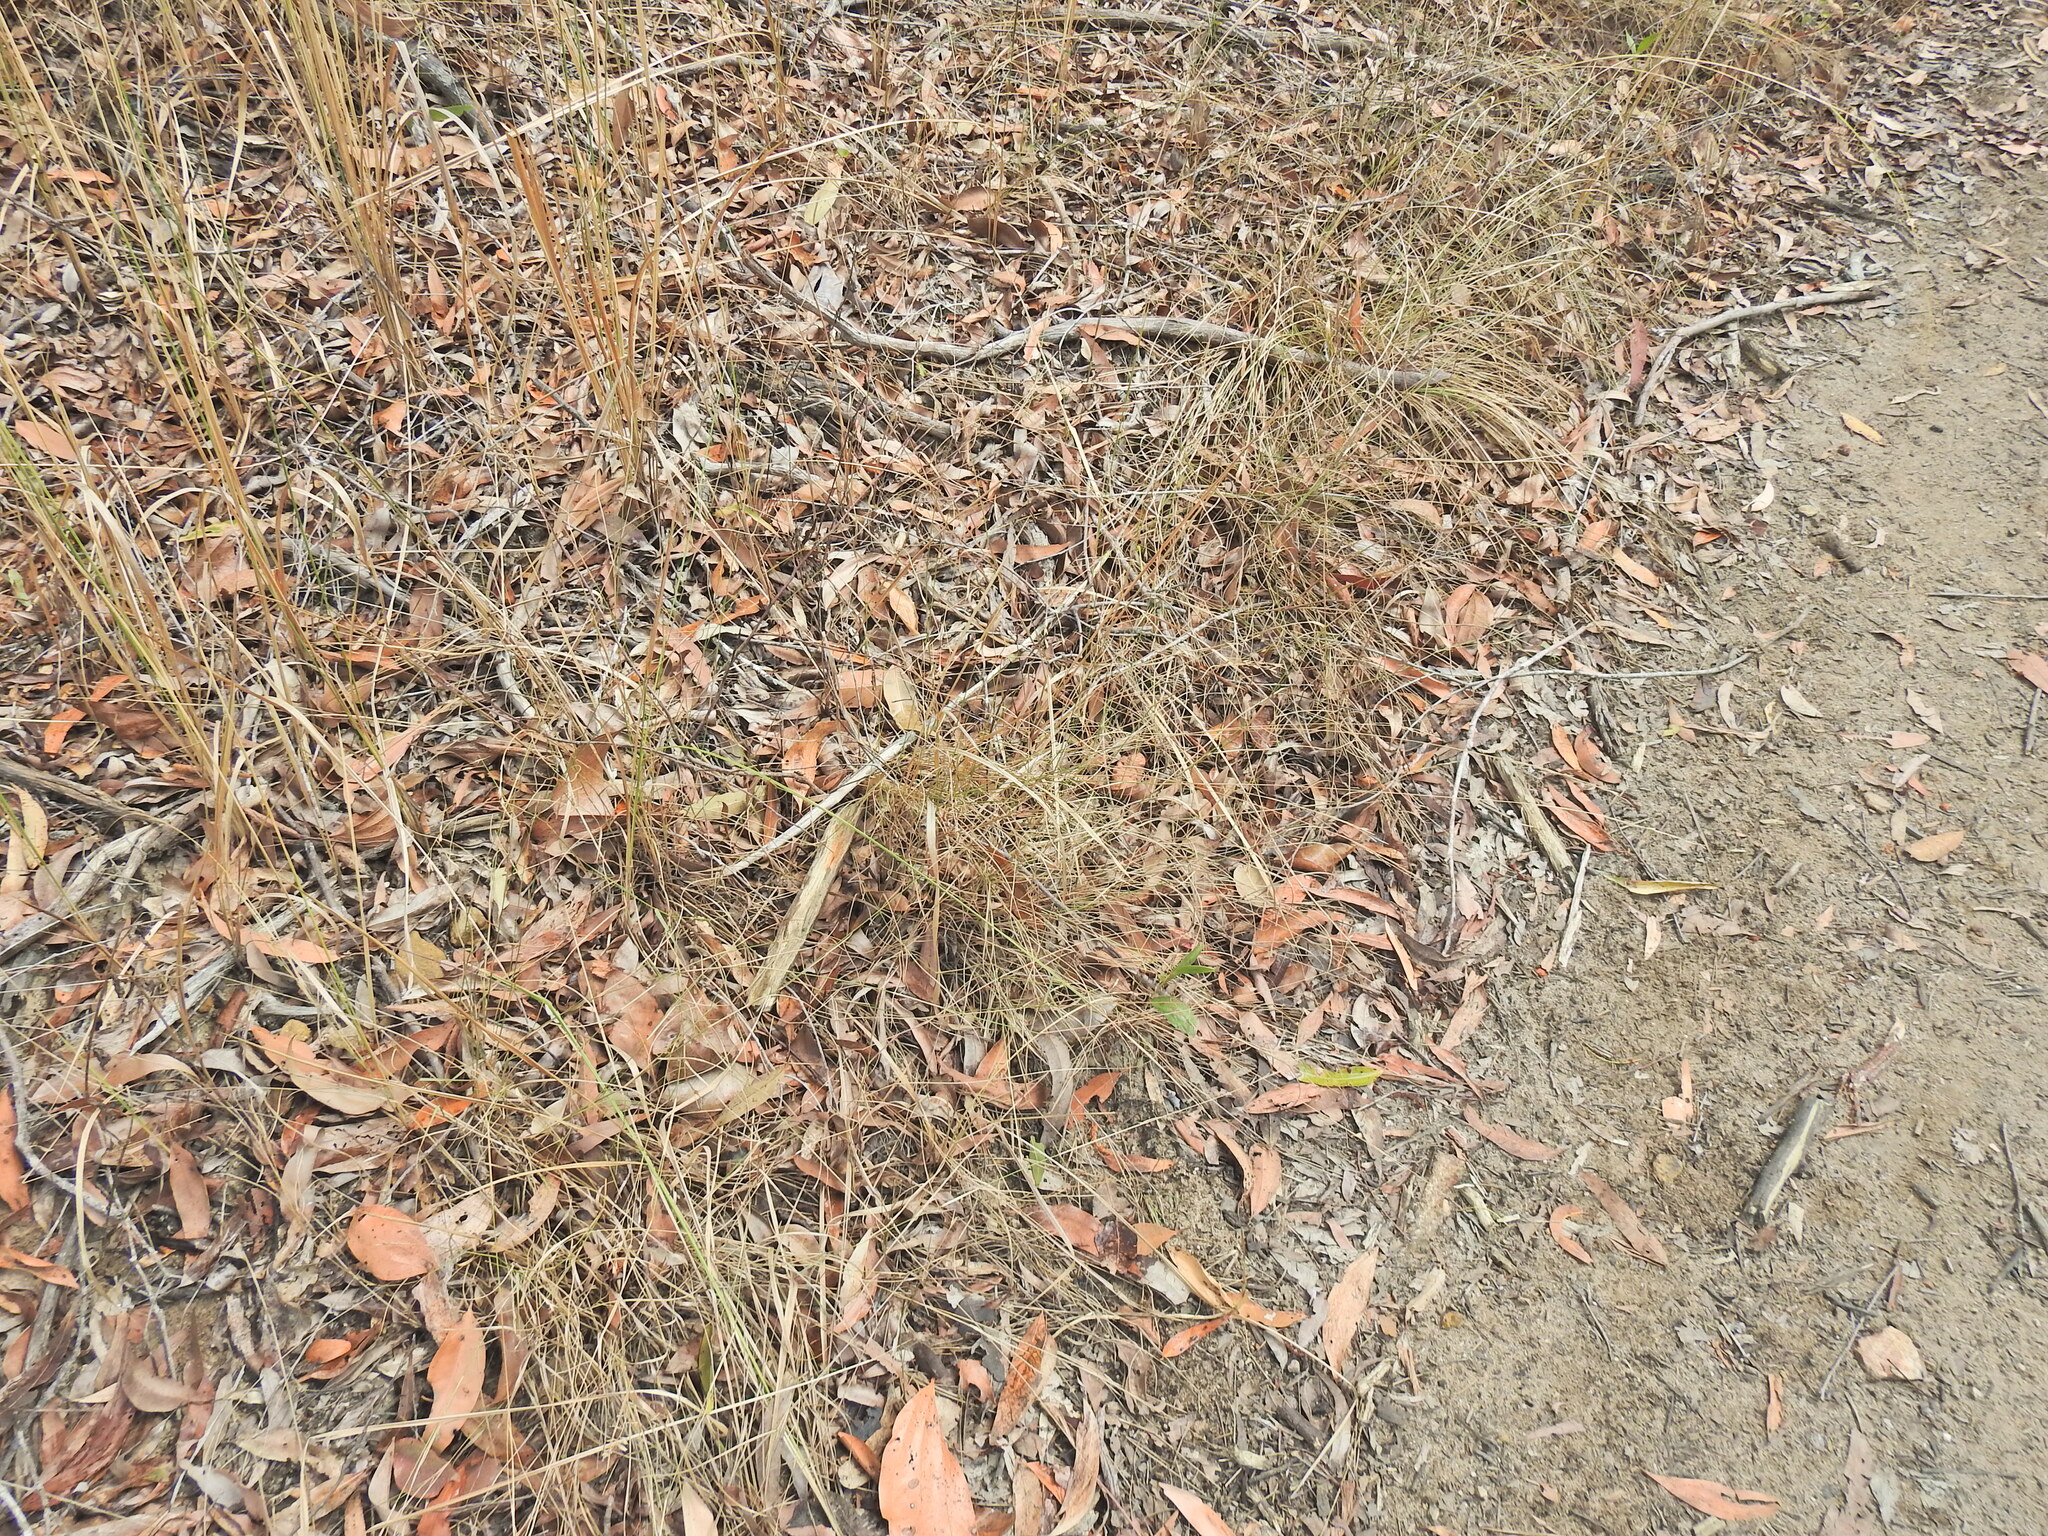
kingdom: Plantae
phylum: Tracheophyta
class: Liliopsida
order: Poales
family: Poaceae
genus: Eriachne
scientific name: Eriachne pallescens
